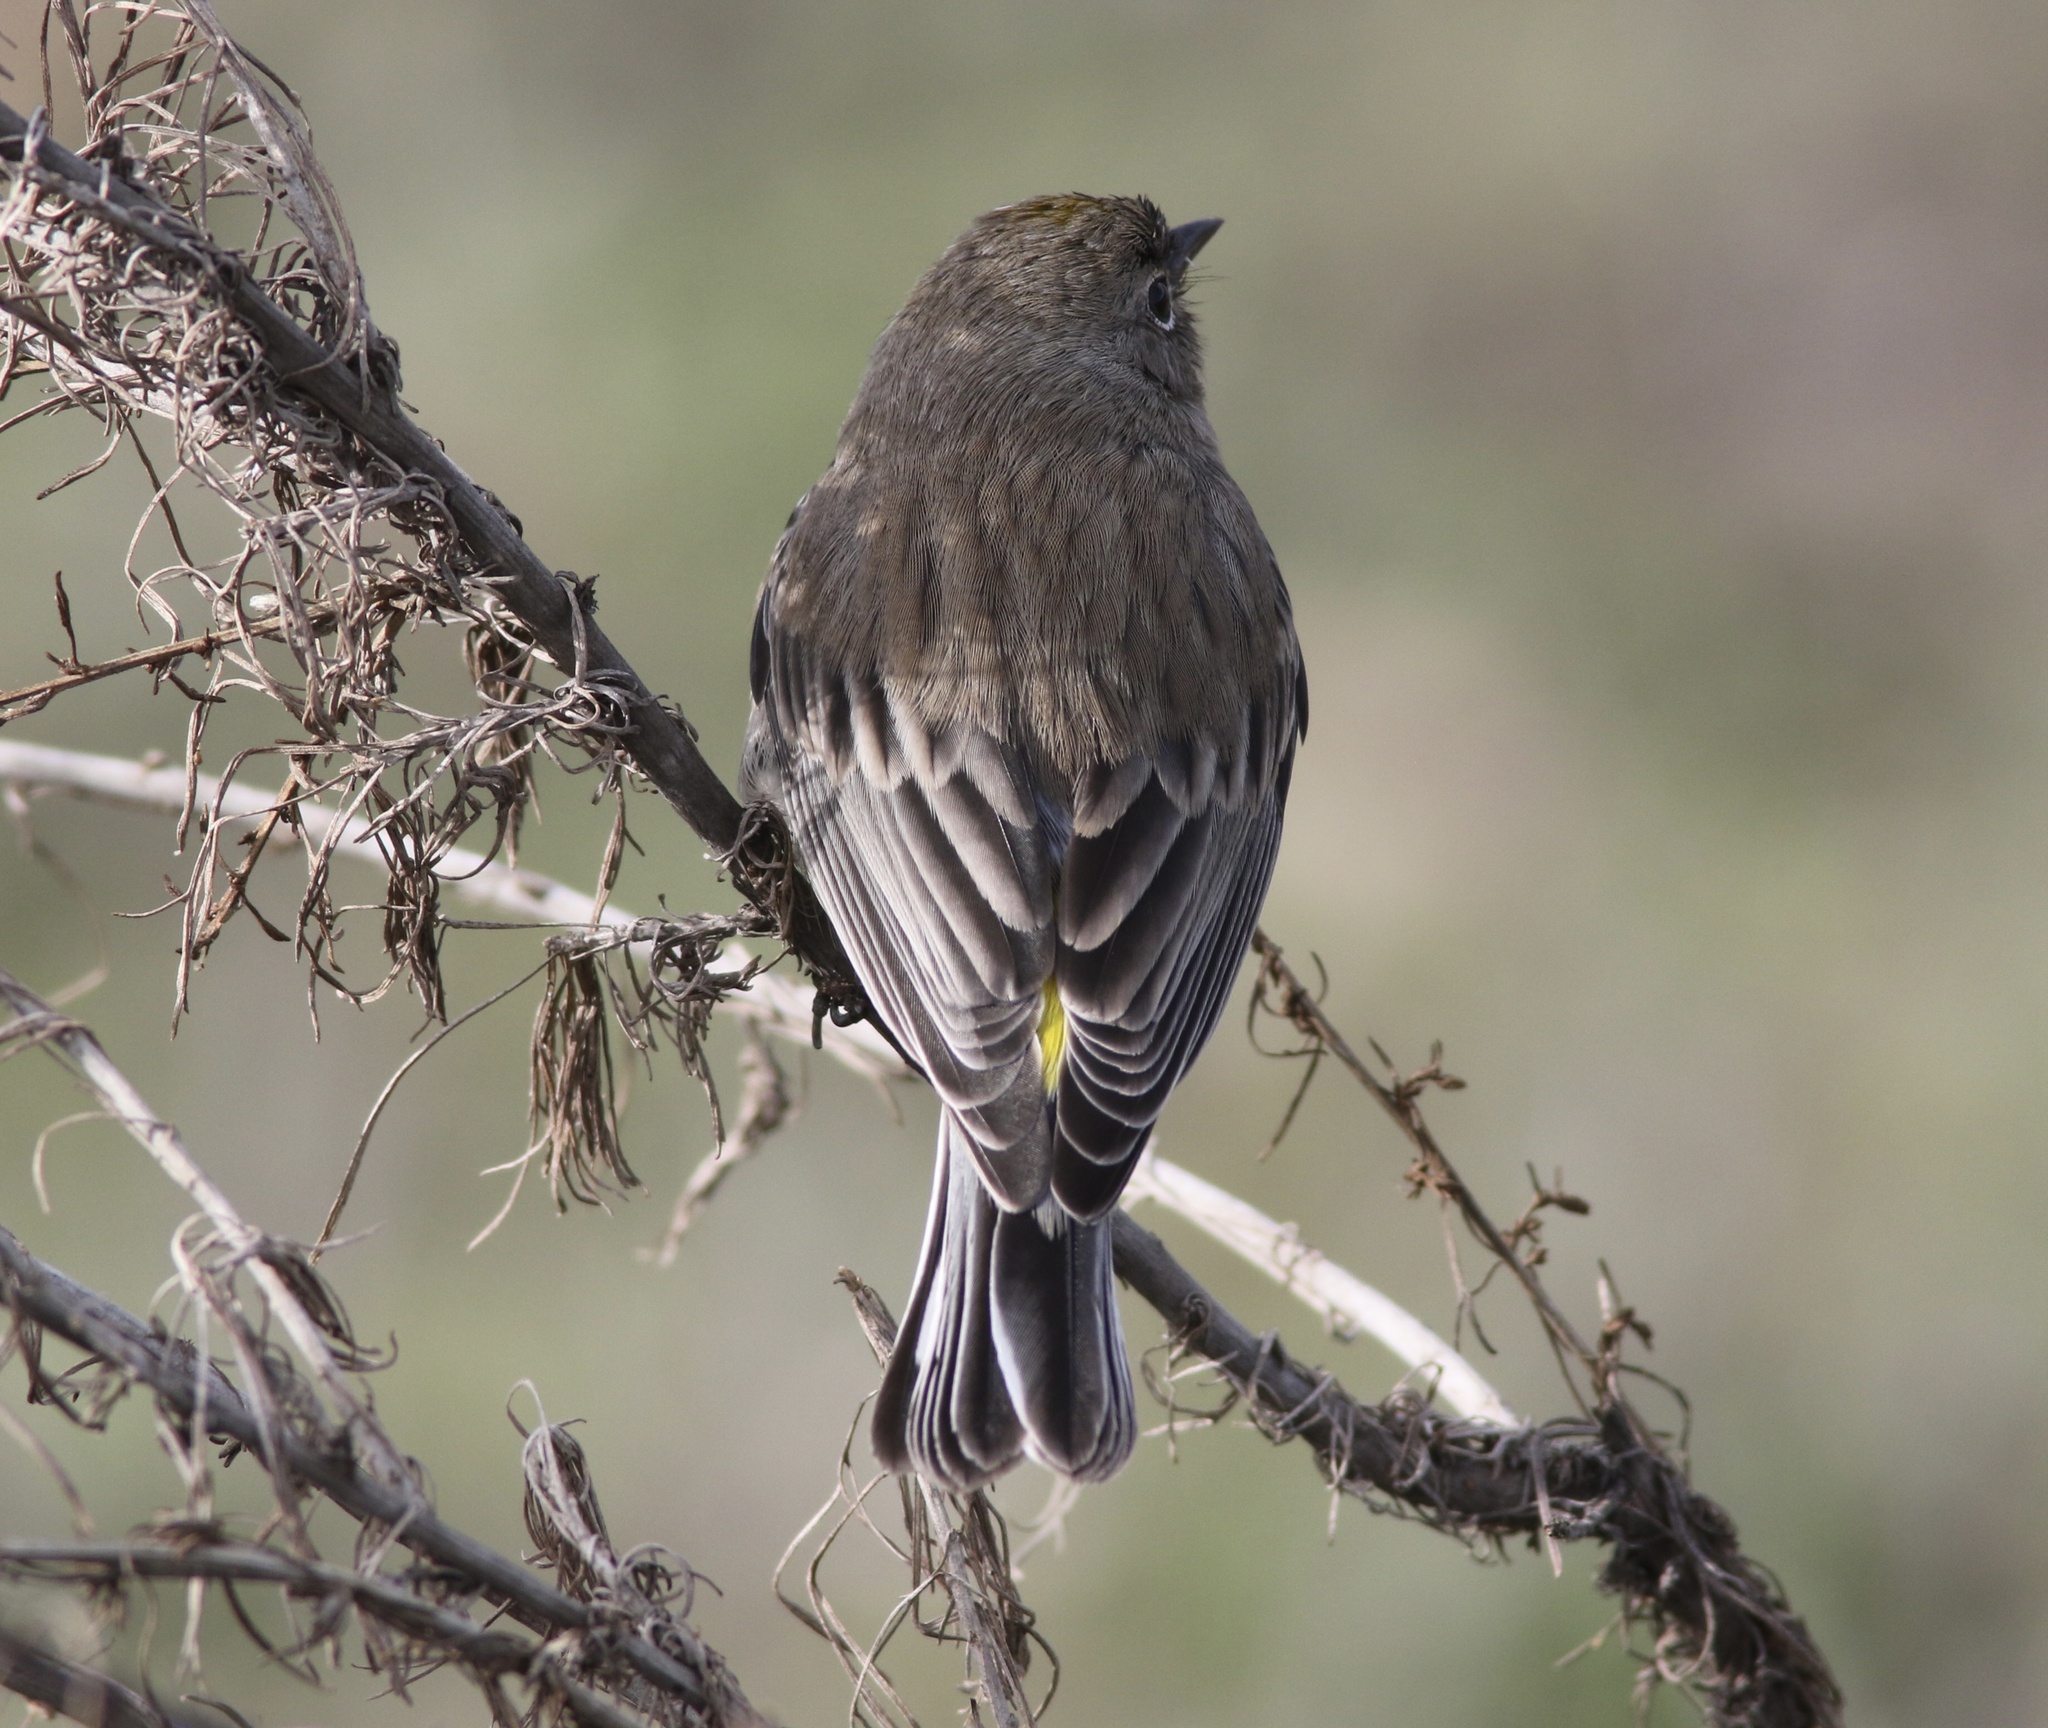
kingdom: Animalia
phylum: Chordata
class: Aves
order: Passeriformes
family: Parulidae
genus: Setophaga
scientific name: Setophaga coronata
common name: Myrtle warbler
